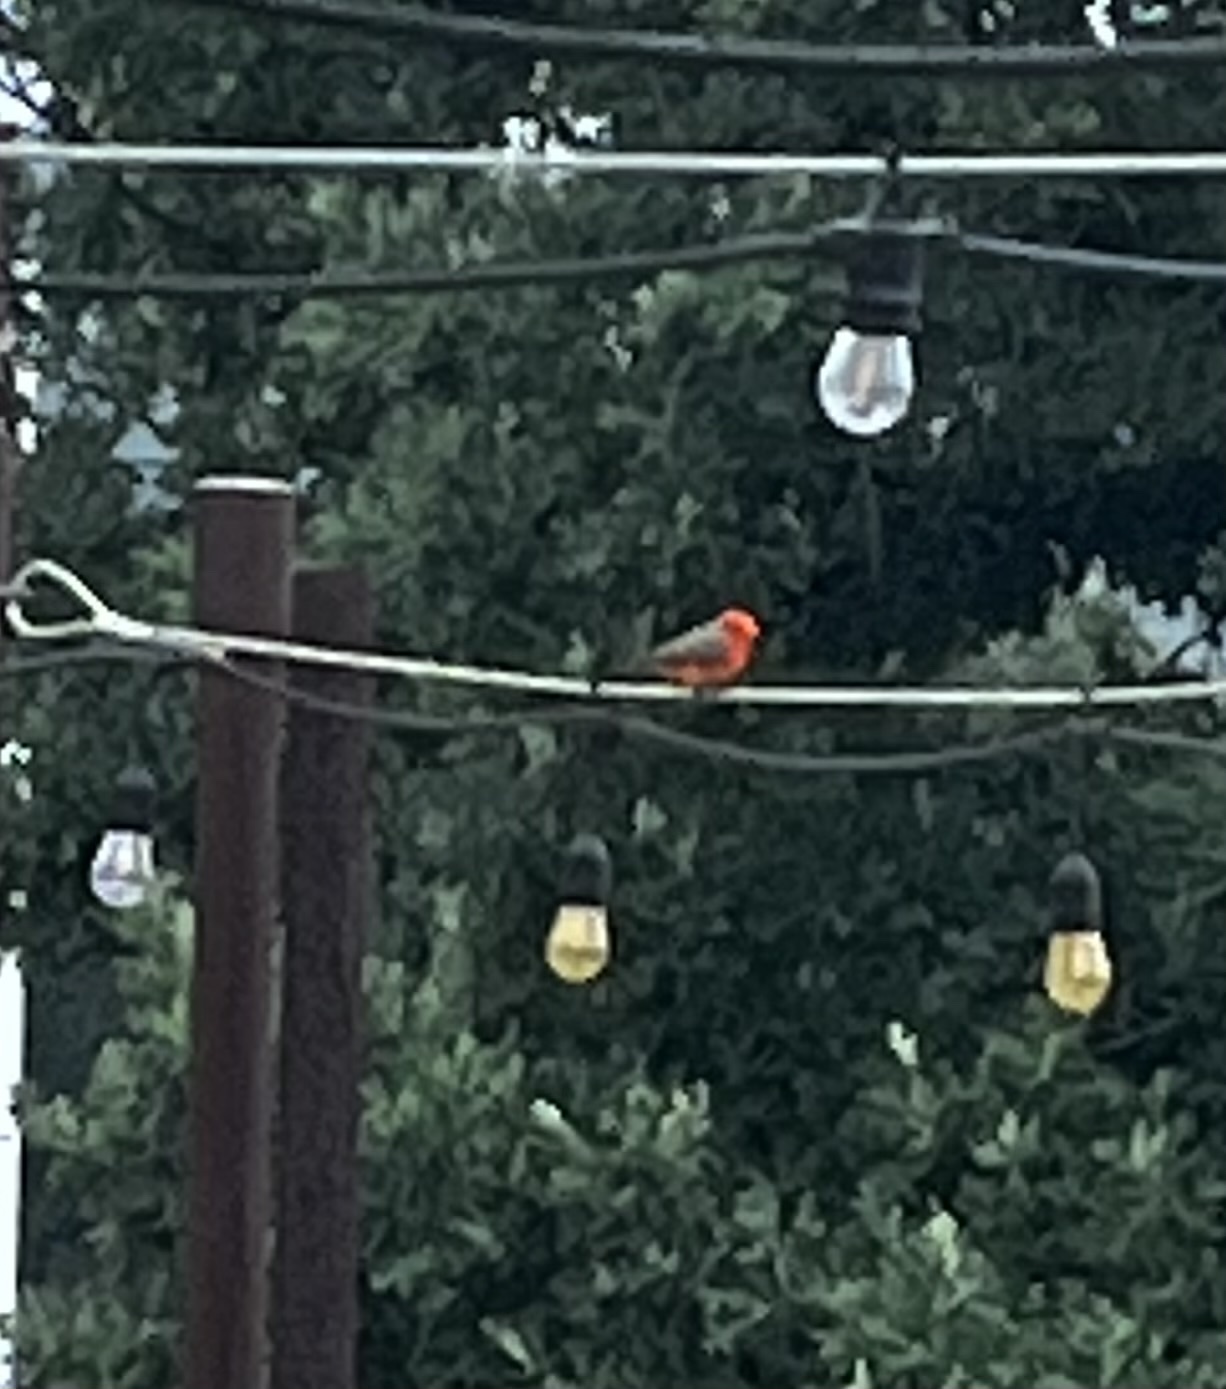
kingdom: Animalia
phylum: Chordata
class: Aves
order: Passeriformes
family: Tyrannidae
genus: Pyrocephalus
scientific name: Pyrocephalus rubinus
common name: Vermilion flycatcher
